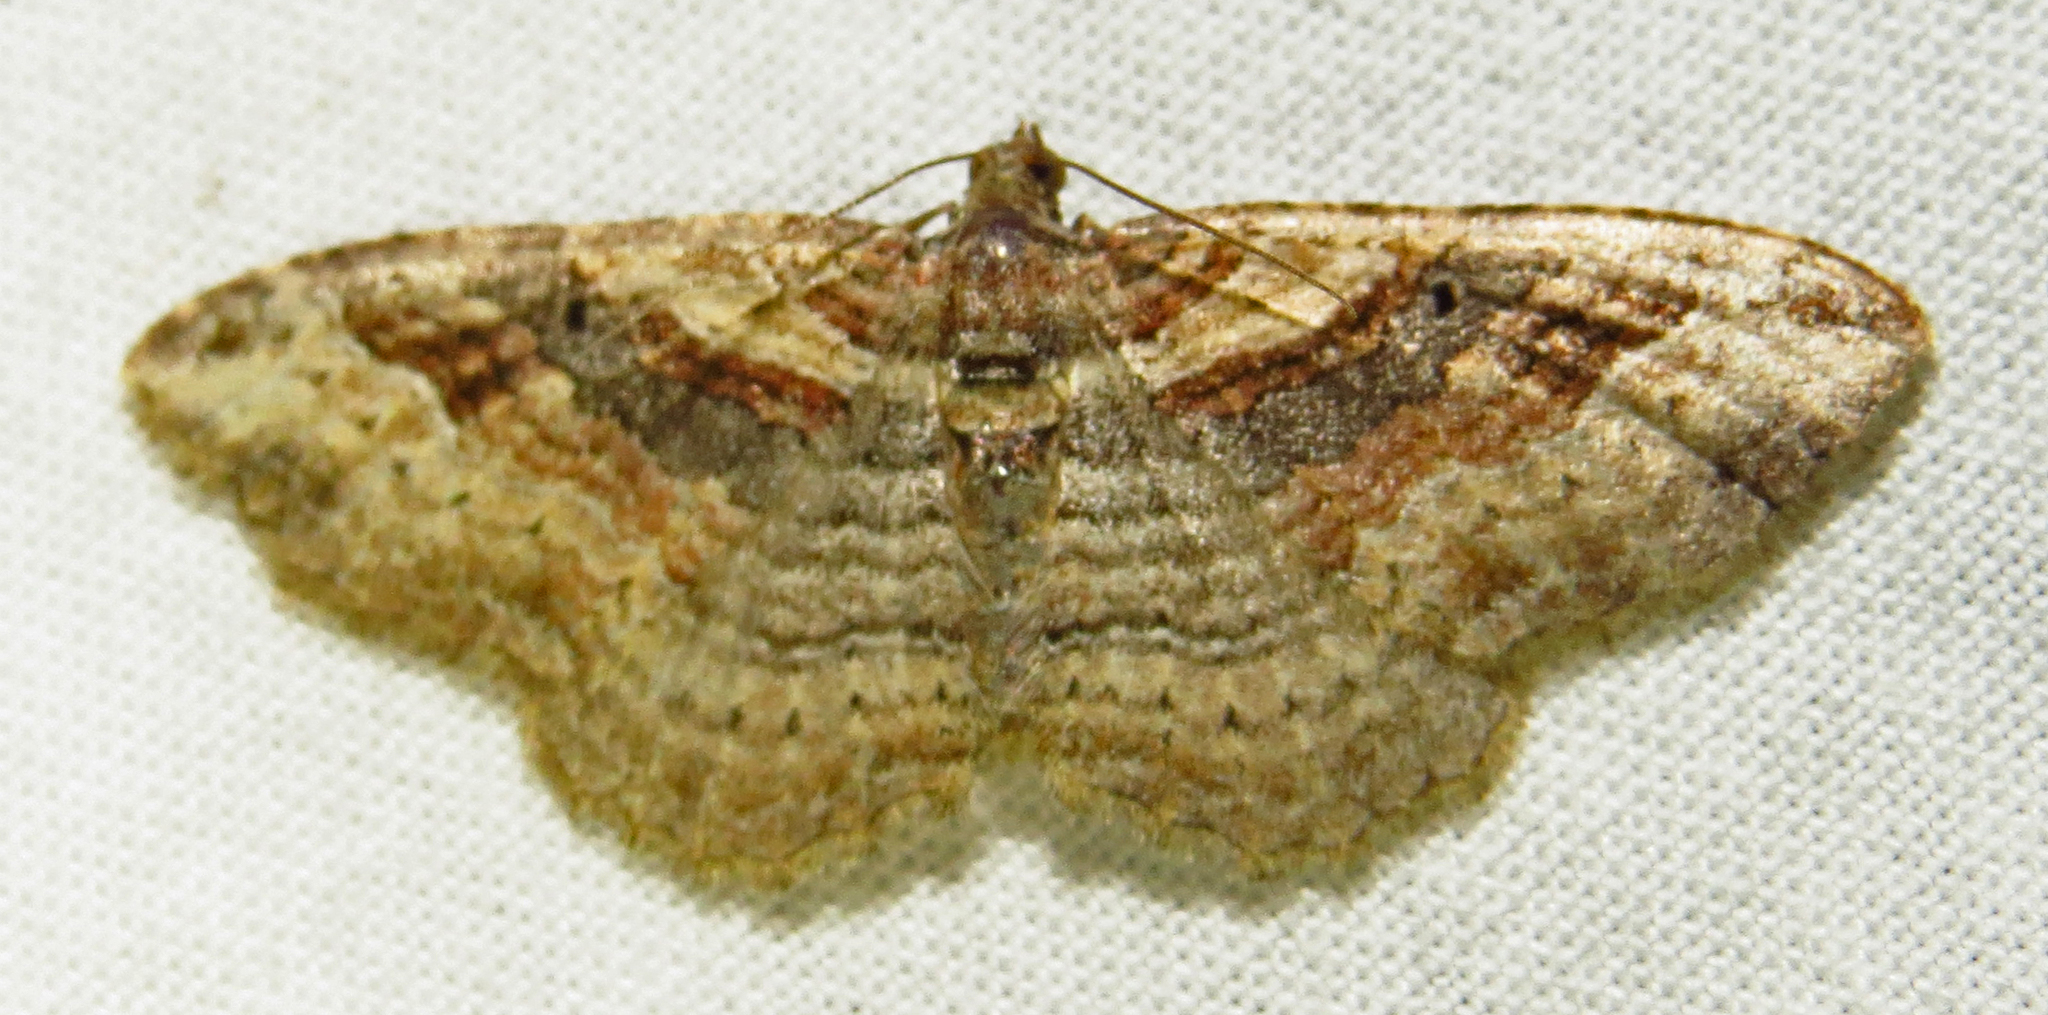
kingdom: Animalia
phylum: Arthropoda
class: Insecta
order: Lepidoptera
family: Geometridae
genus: Costaconvexa
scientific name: Costaconvexa centrostrigaria
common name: Bent-line carpet
